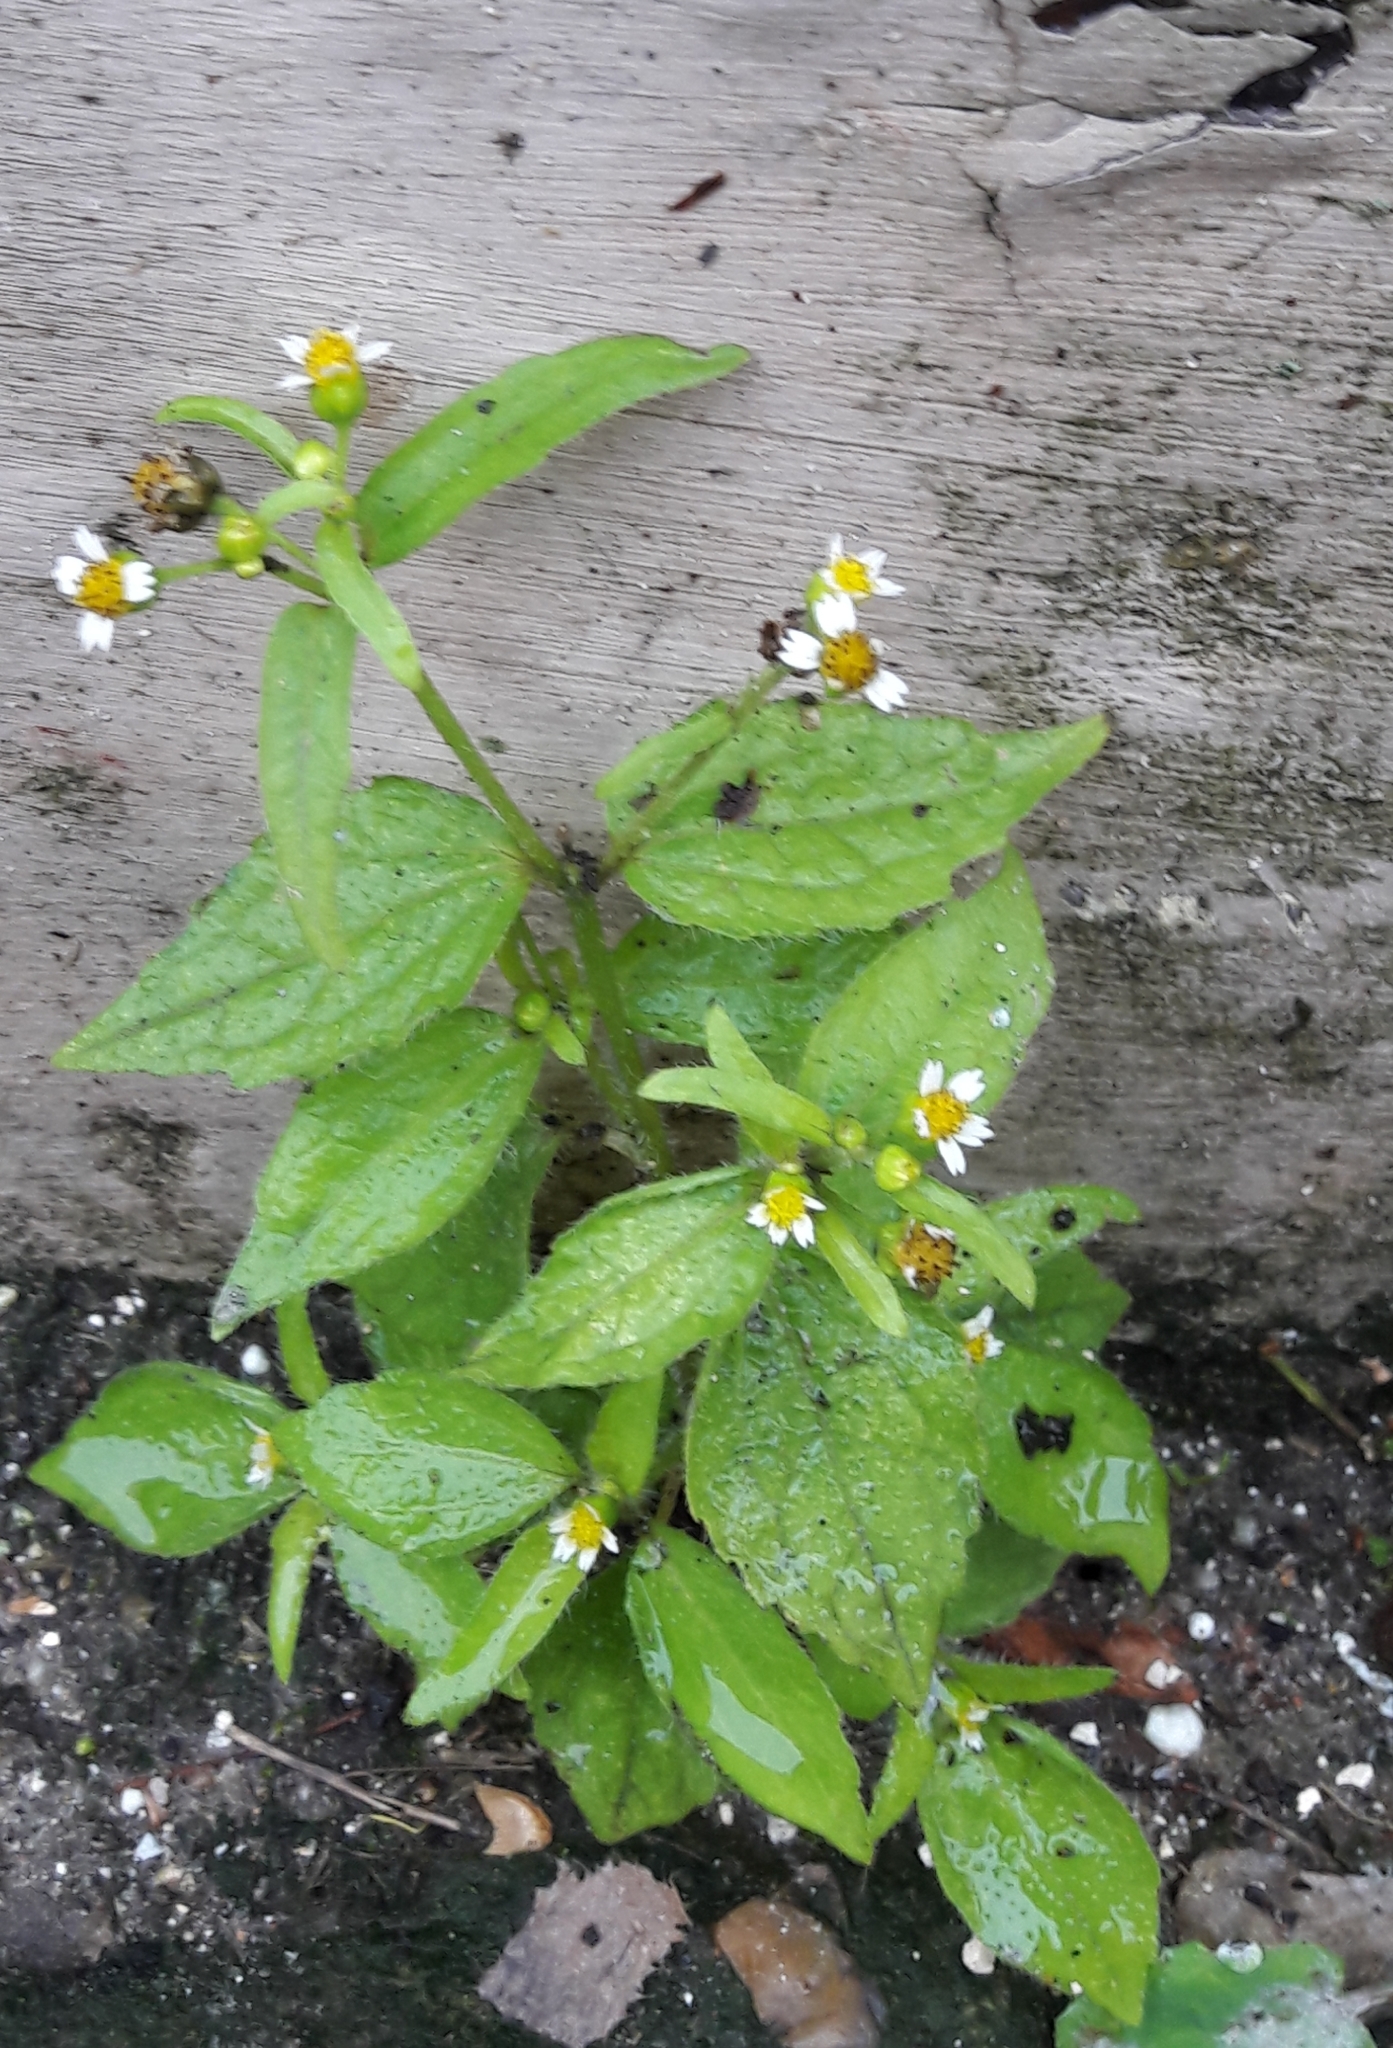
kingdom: Plantae
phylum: Tracheophyta
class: Magnoliopsida
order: Asterales
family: Asteraceae
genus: Galinsoga
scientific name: Galinsoga quadriradiata
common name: Shaggy soldier
